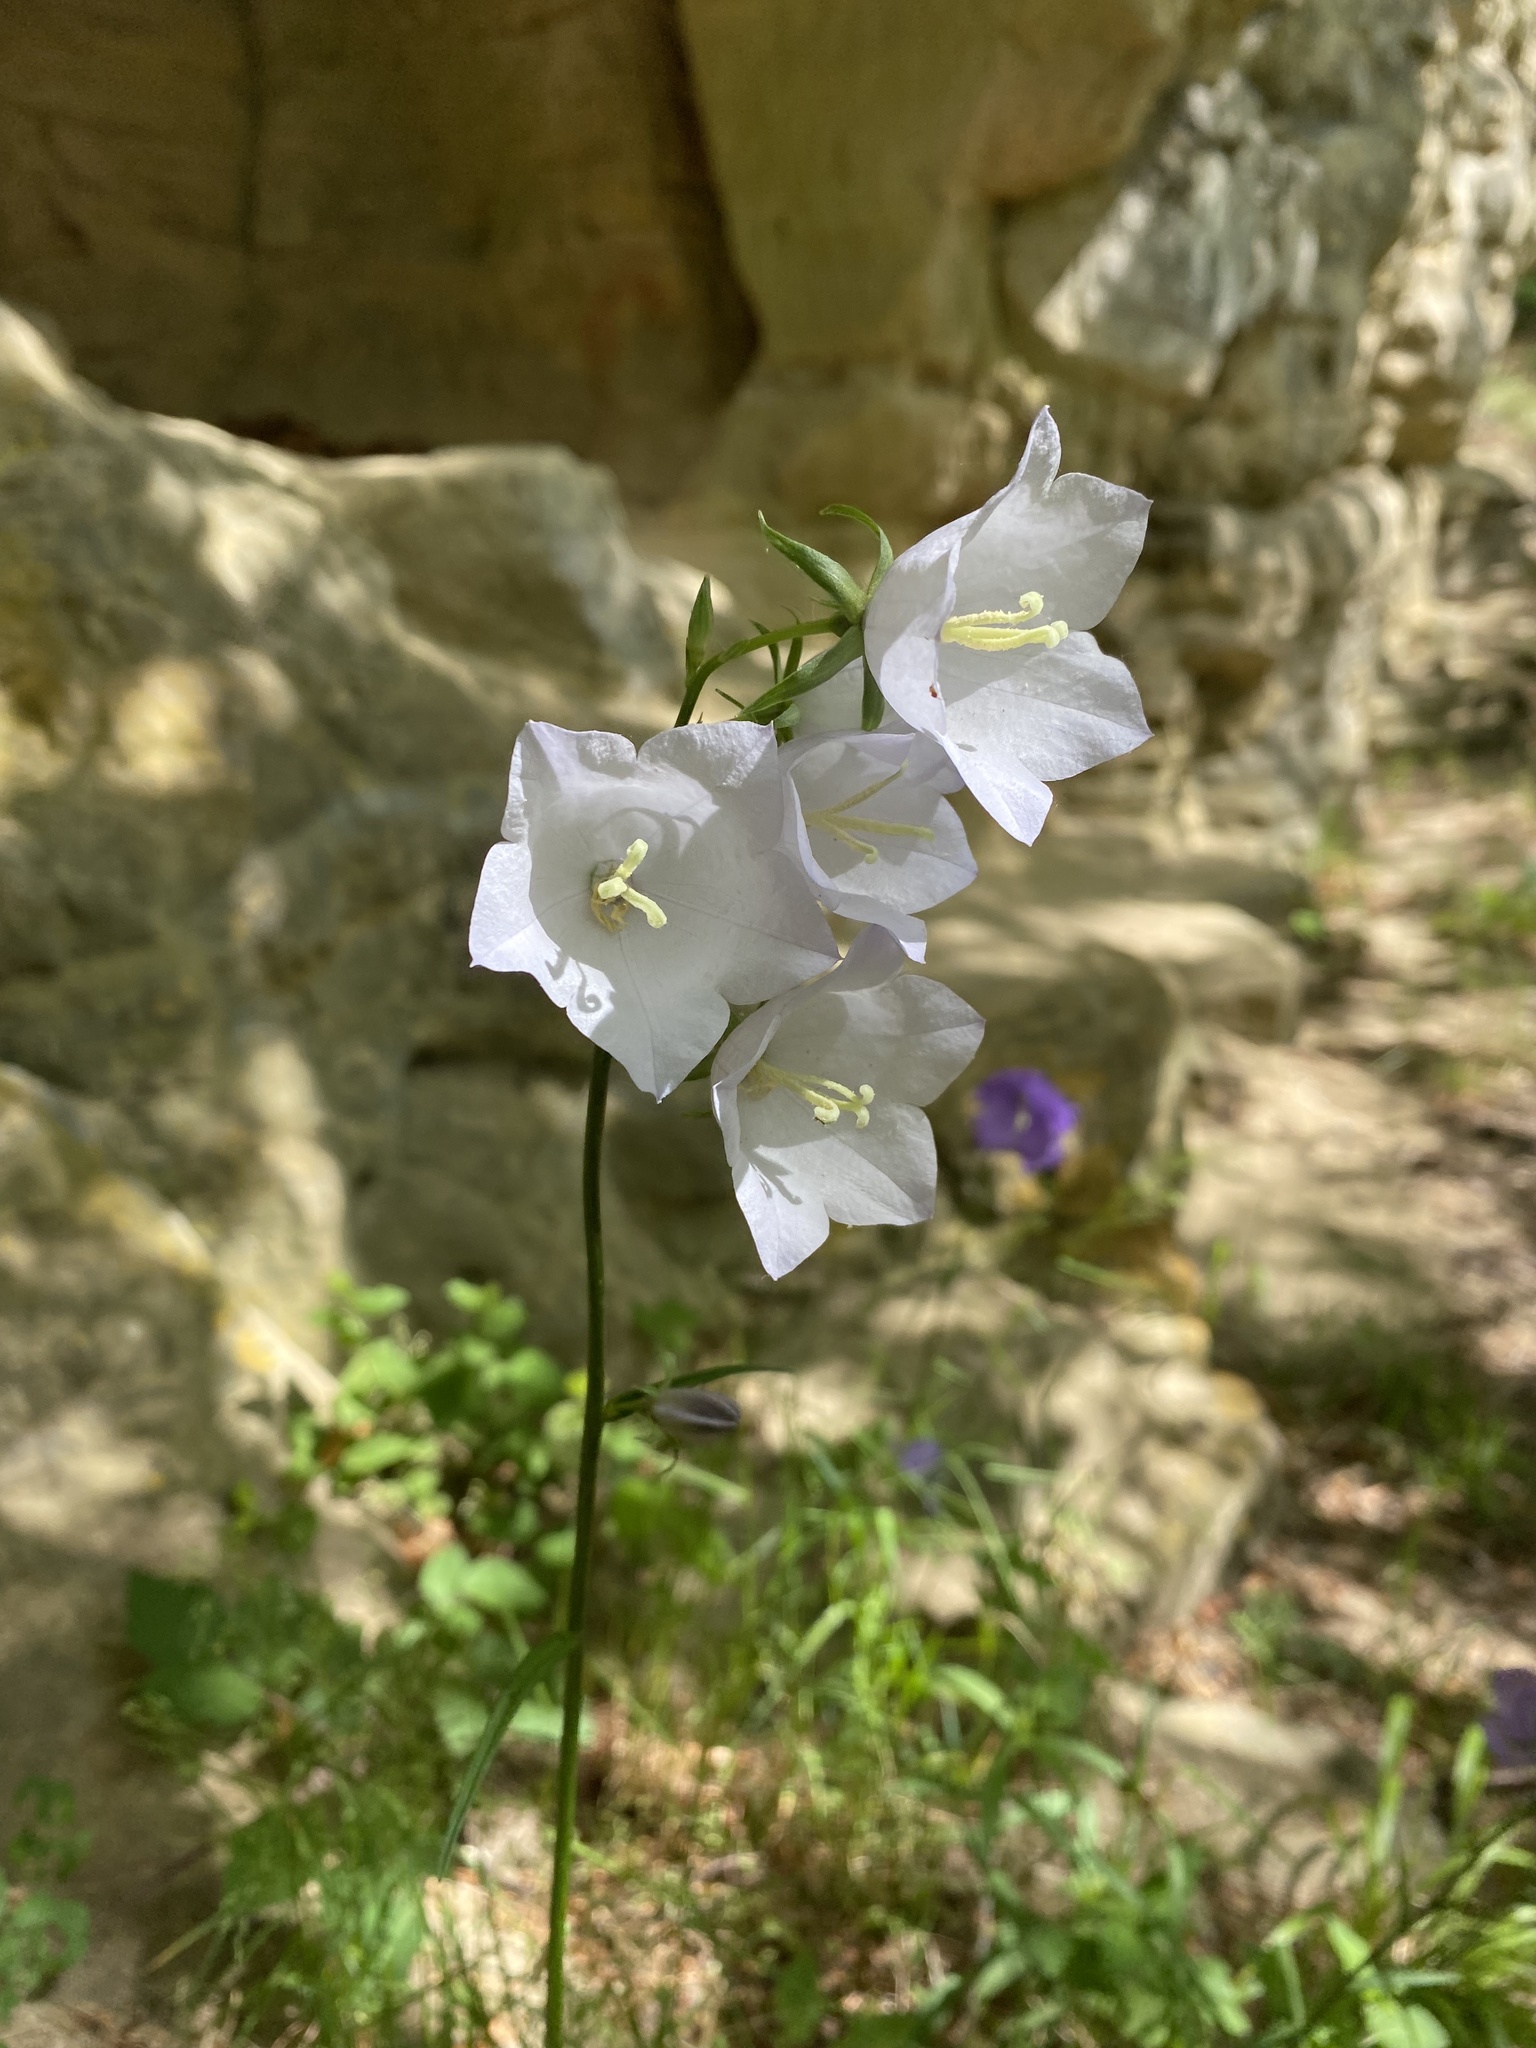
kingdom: Plantae
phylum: Tracheophyta
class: Magnoliopsida
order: Asterales
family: Campanulaceae
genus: Campanula
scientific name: Campanula persicifolia
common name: Peach-leaved bellflower
